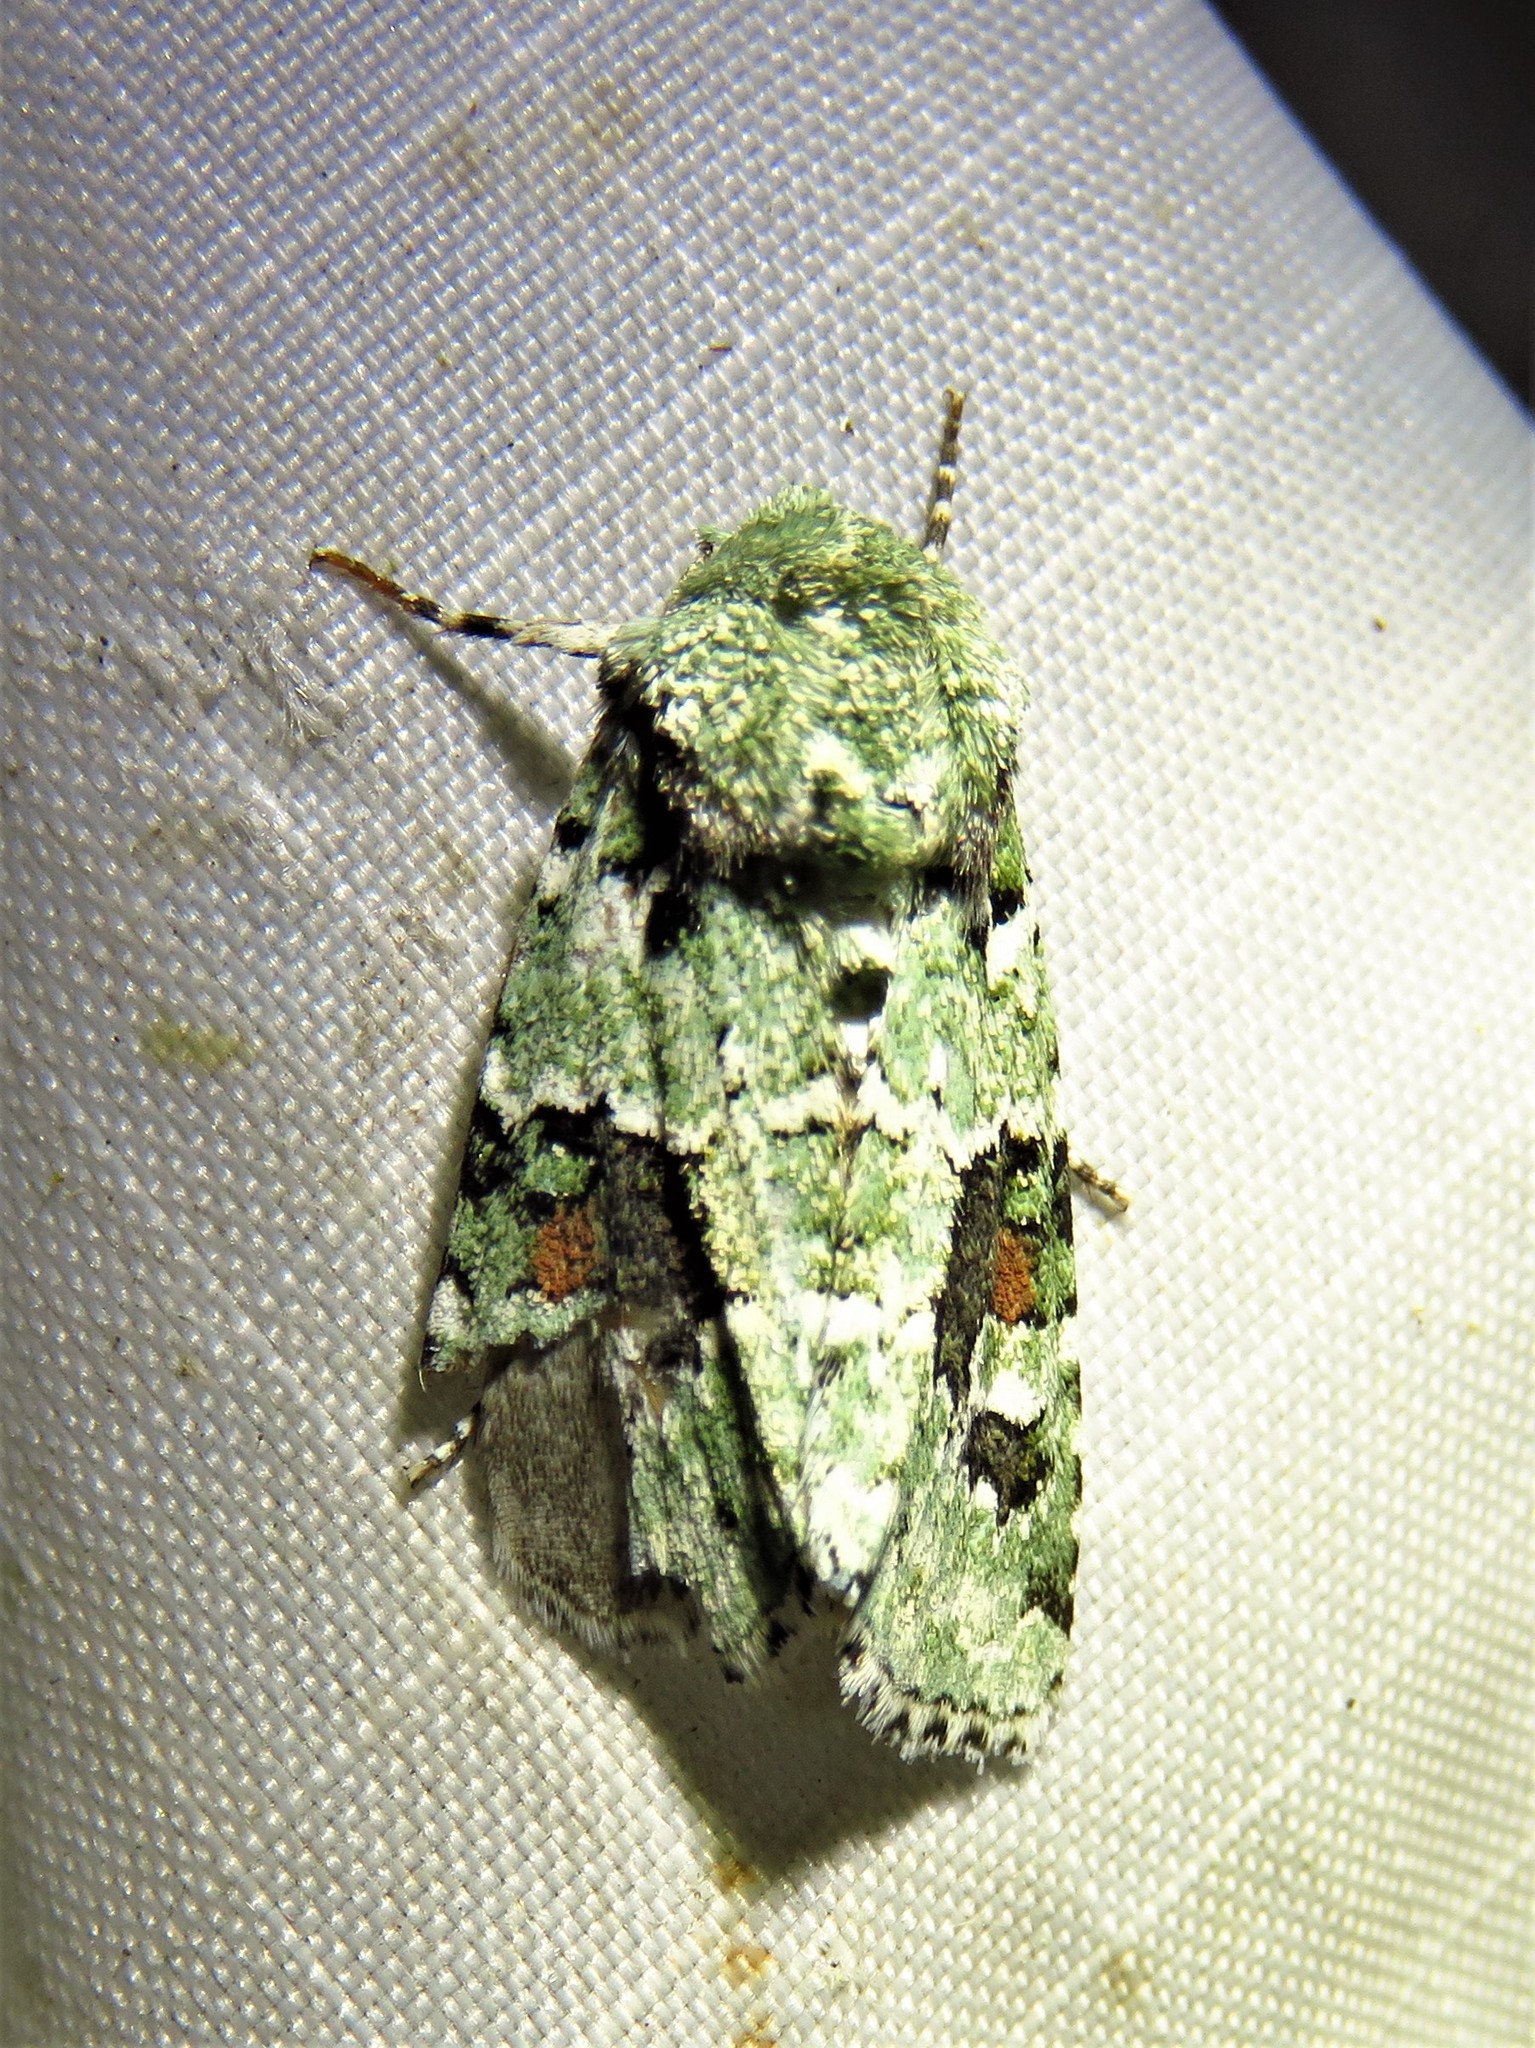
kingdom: Animalia
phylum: Arthropoda
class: Insecta
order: Lepidoptera
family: Noctuidae
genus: Lacinipolia
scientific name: Lacinipolia laudabilis
